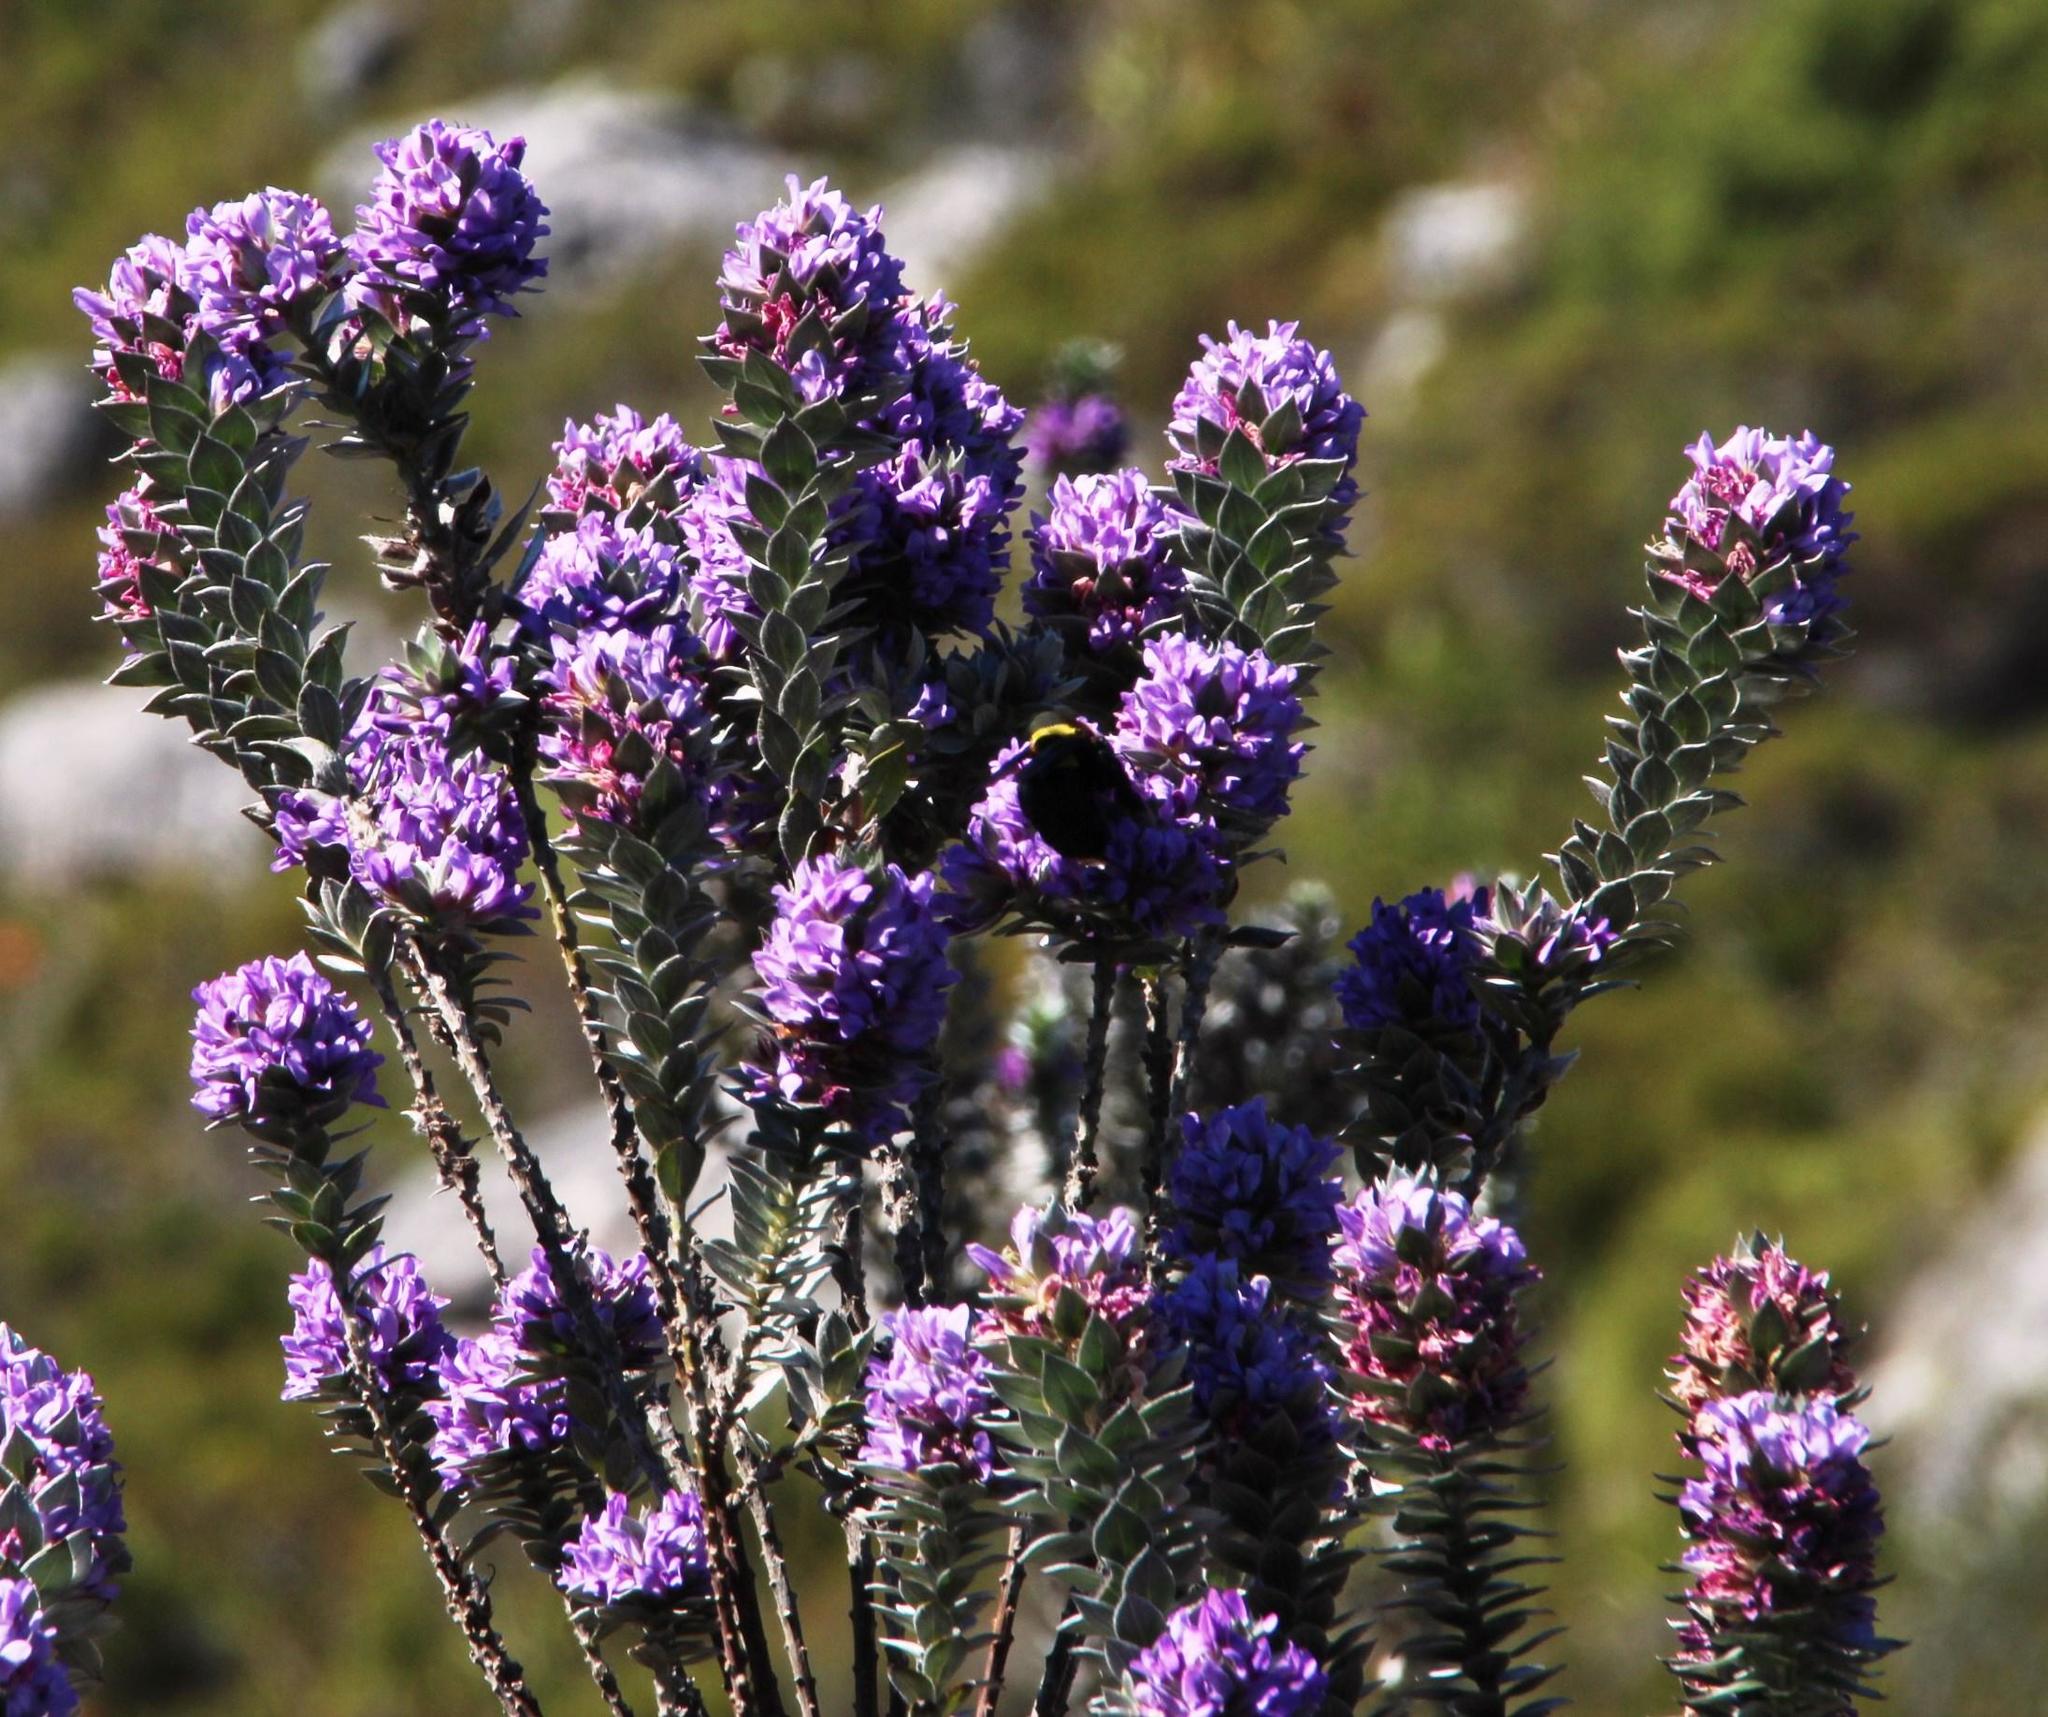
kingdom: Plantae
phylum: Tracheophyta
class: Magnoliopsida
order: Fabales
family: Fabaceae
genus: Amphithalea
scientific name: Amphithalea imbricata
